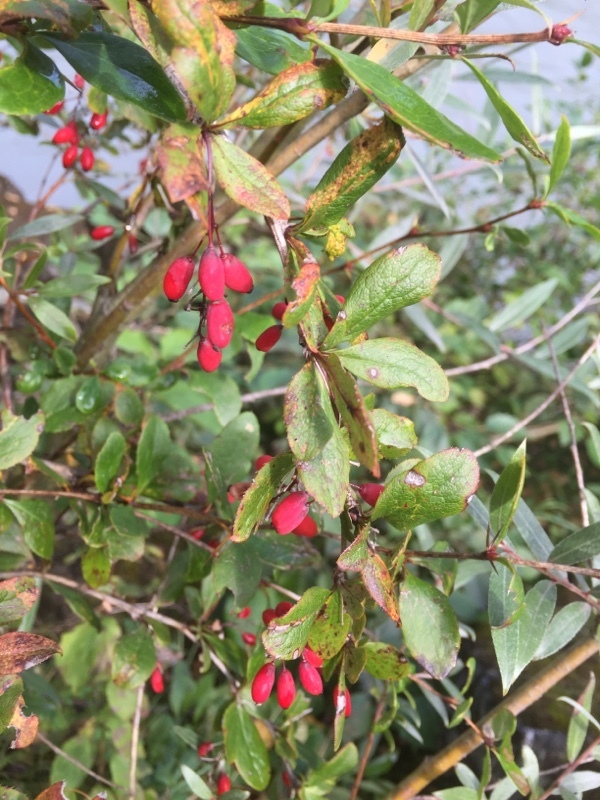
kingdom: Plantae
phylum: Tracheophyta
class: Magnoliopsida
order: Ranunculales
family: Berberidaceae
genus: Berberis
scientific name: Berberis vulgaris
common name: Barberry
